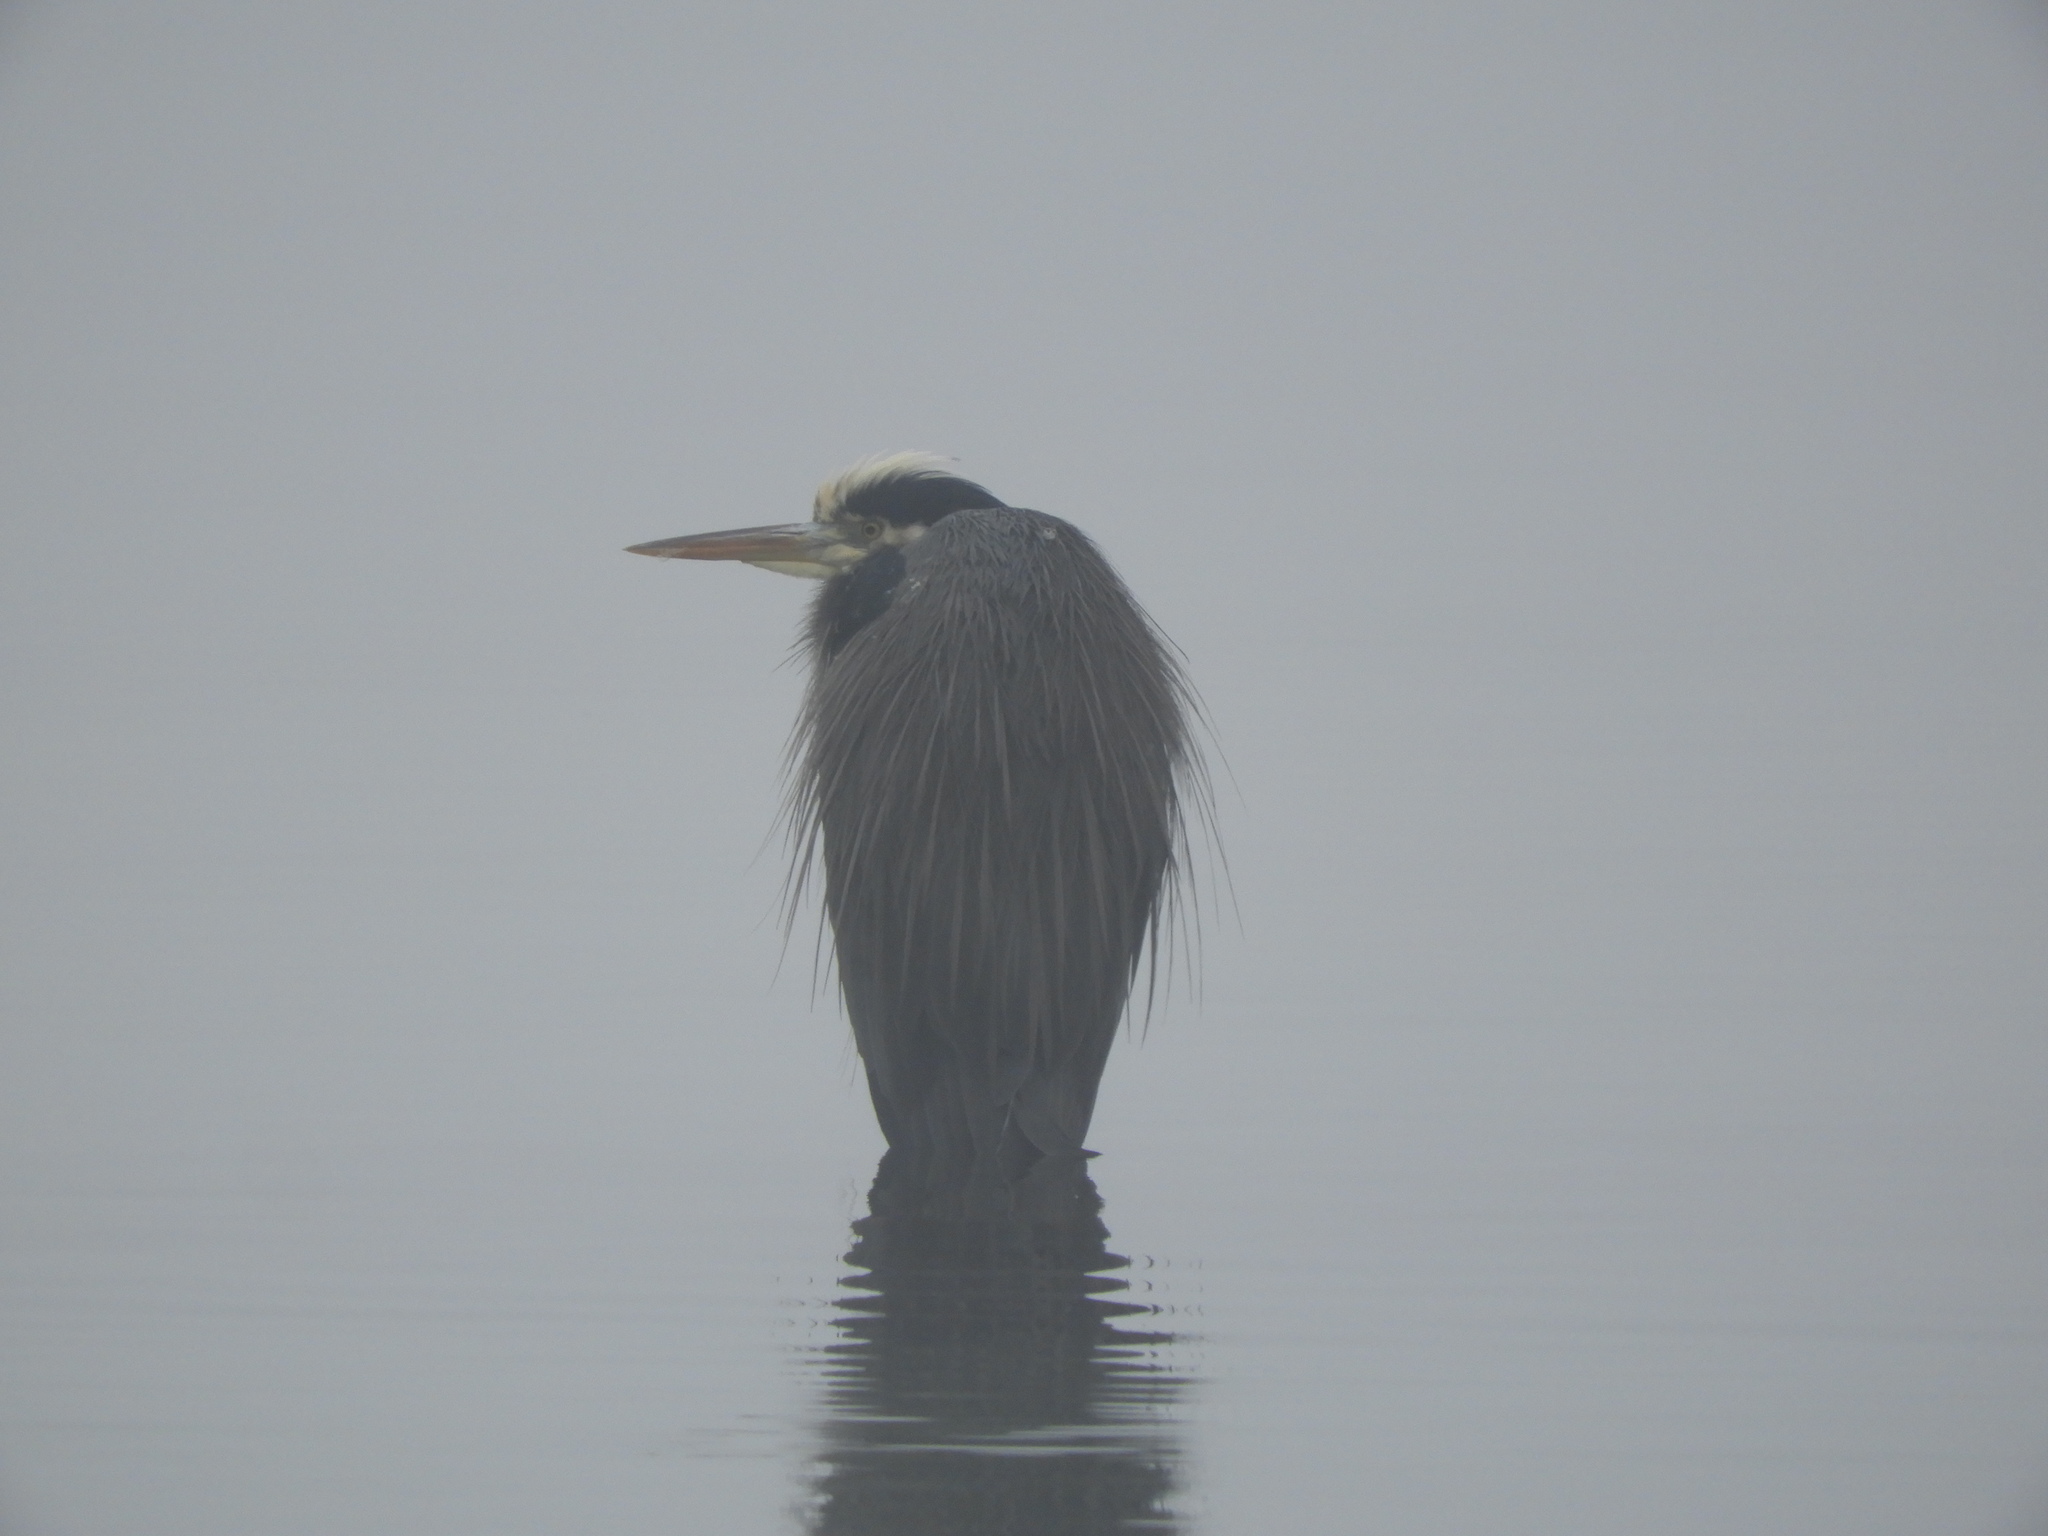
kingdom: Animalia
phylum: Chordata
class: Aves
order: Pelecaniformes
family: Ardeidae
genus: Ardea
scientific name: Ardea herodias
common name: Great blue heron
